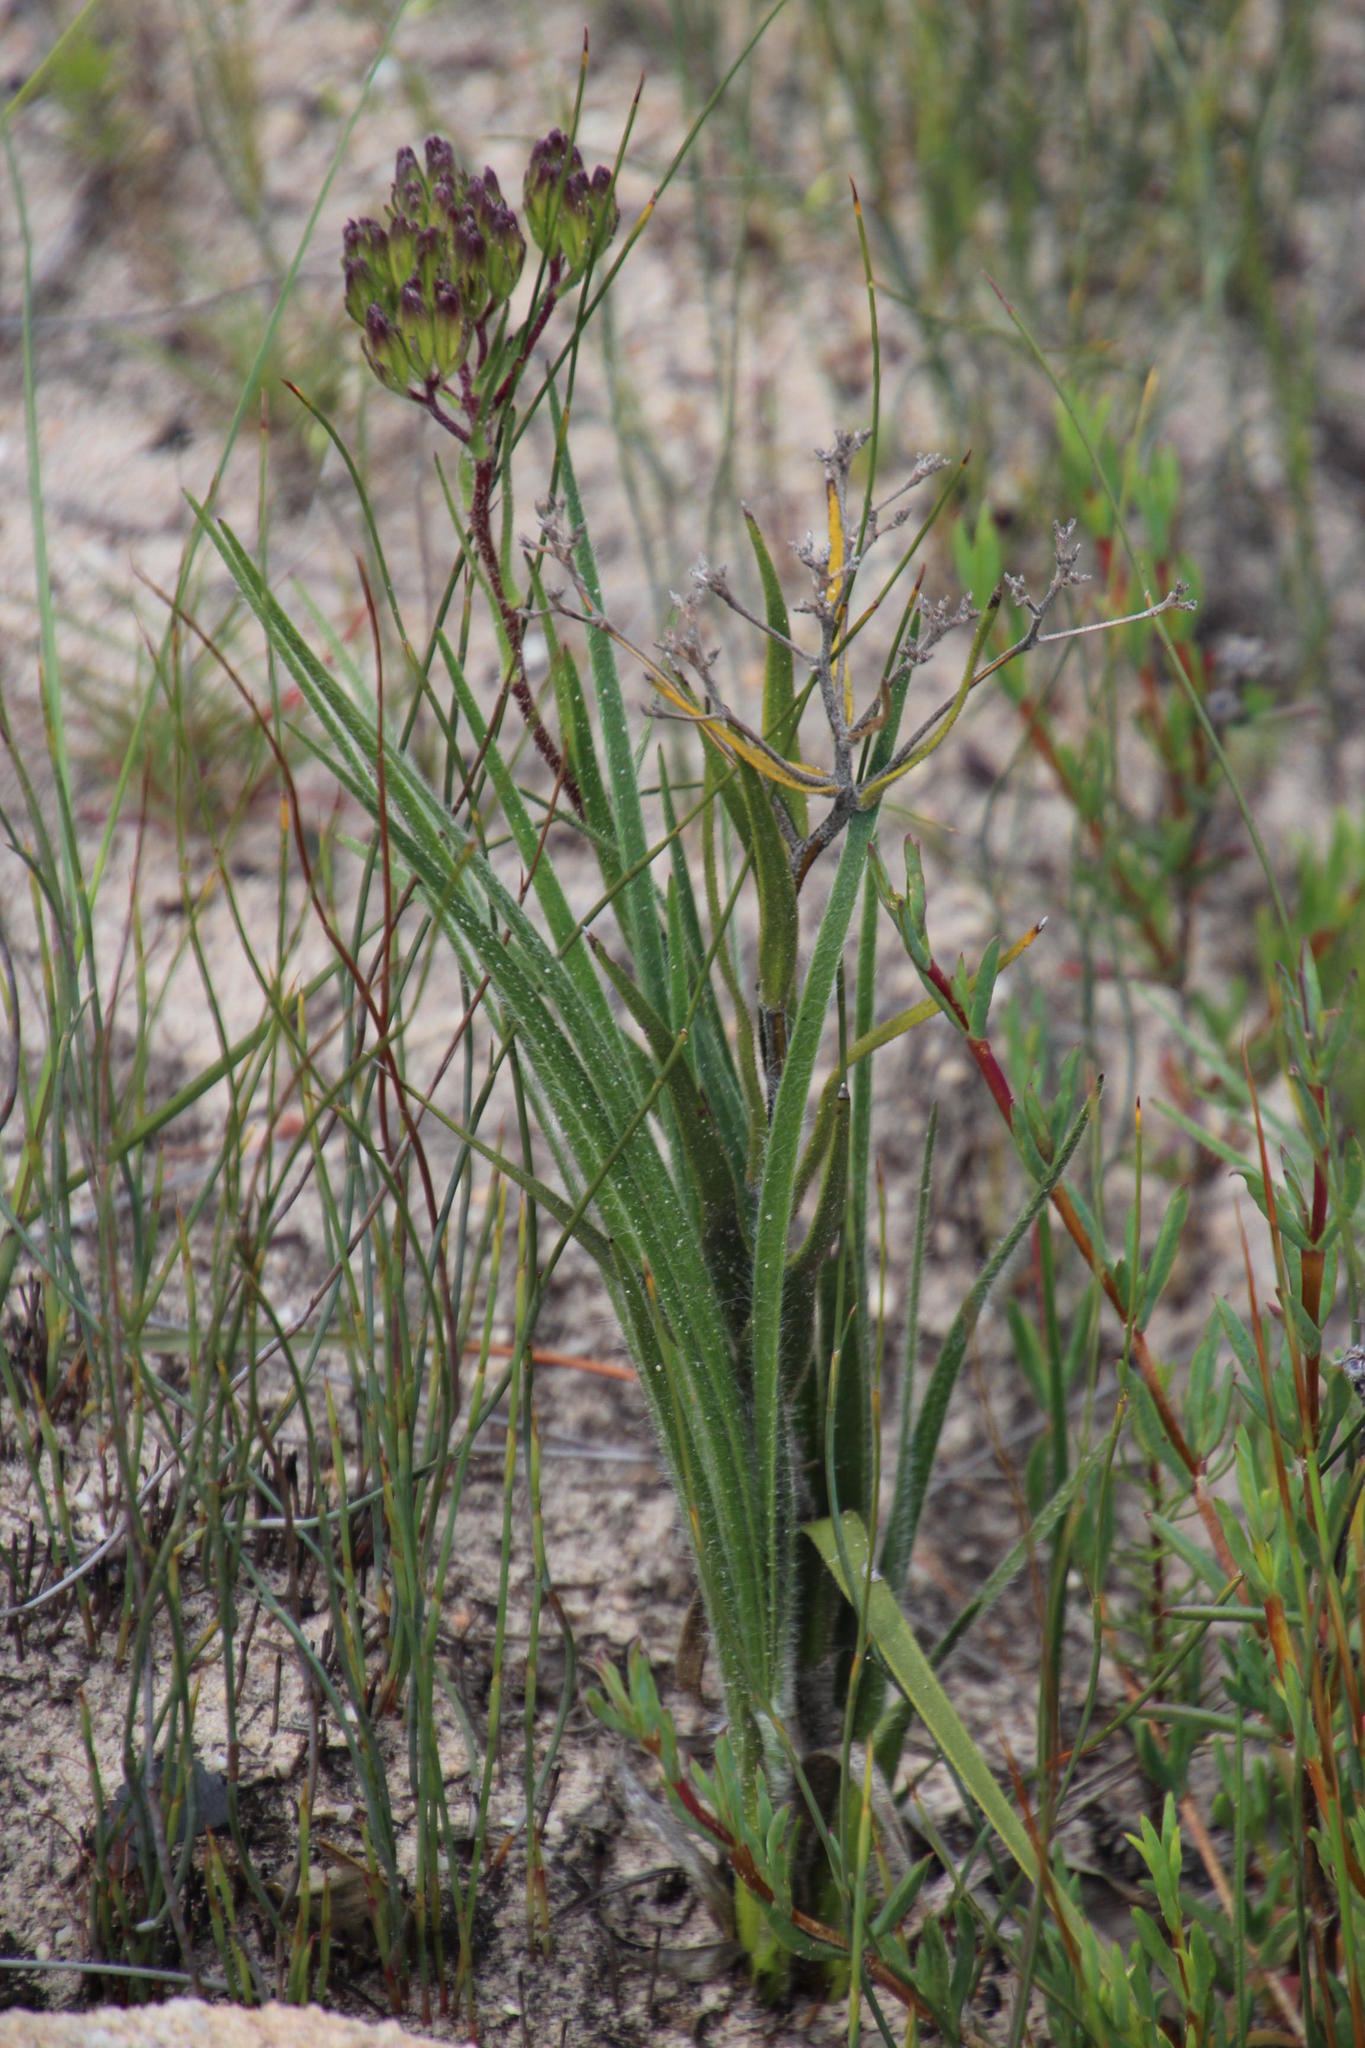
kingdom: Plantae
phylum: Tracheophyta
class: Magnoliopsida
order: Asterales
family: Asteraceae
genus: Corymbium
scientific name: Corymbium villosum
